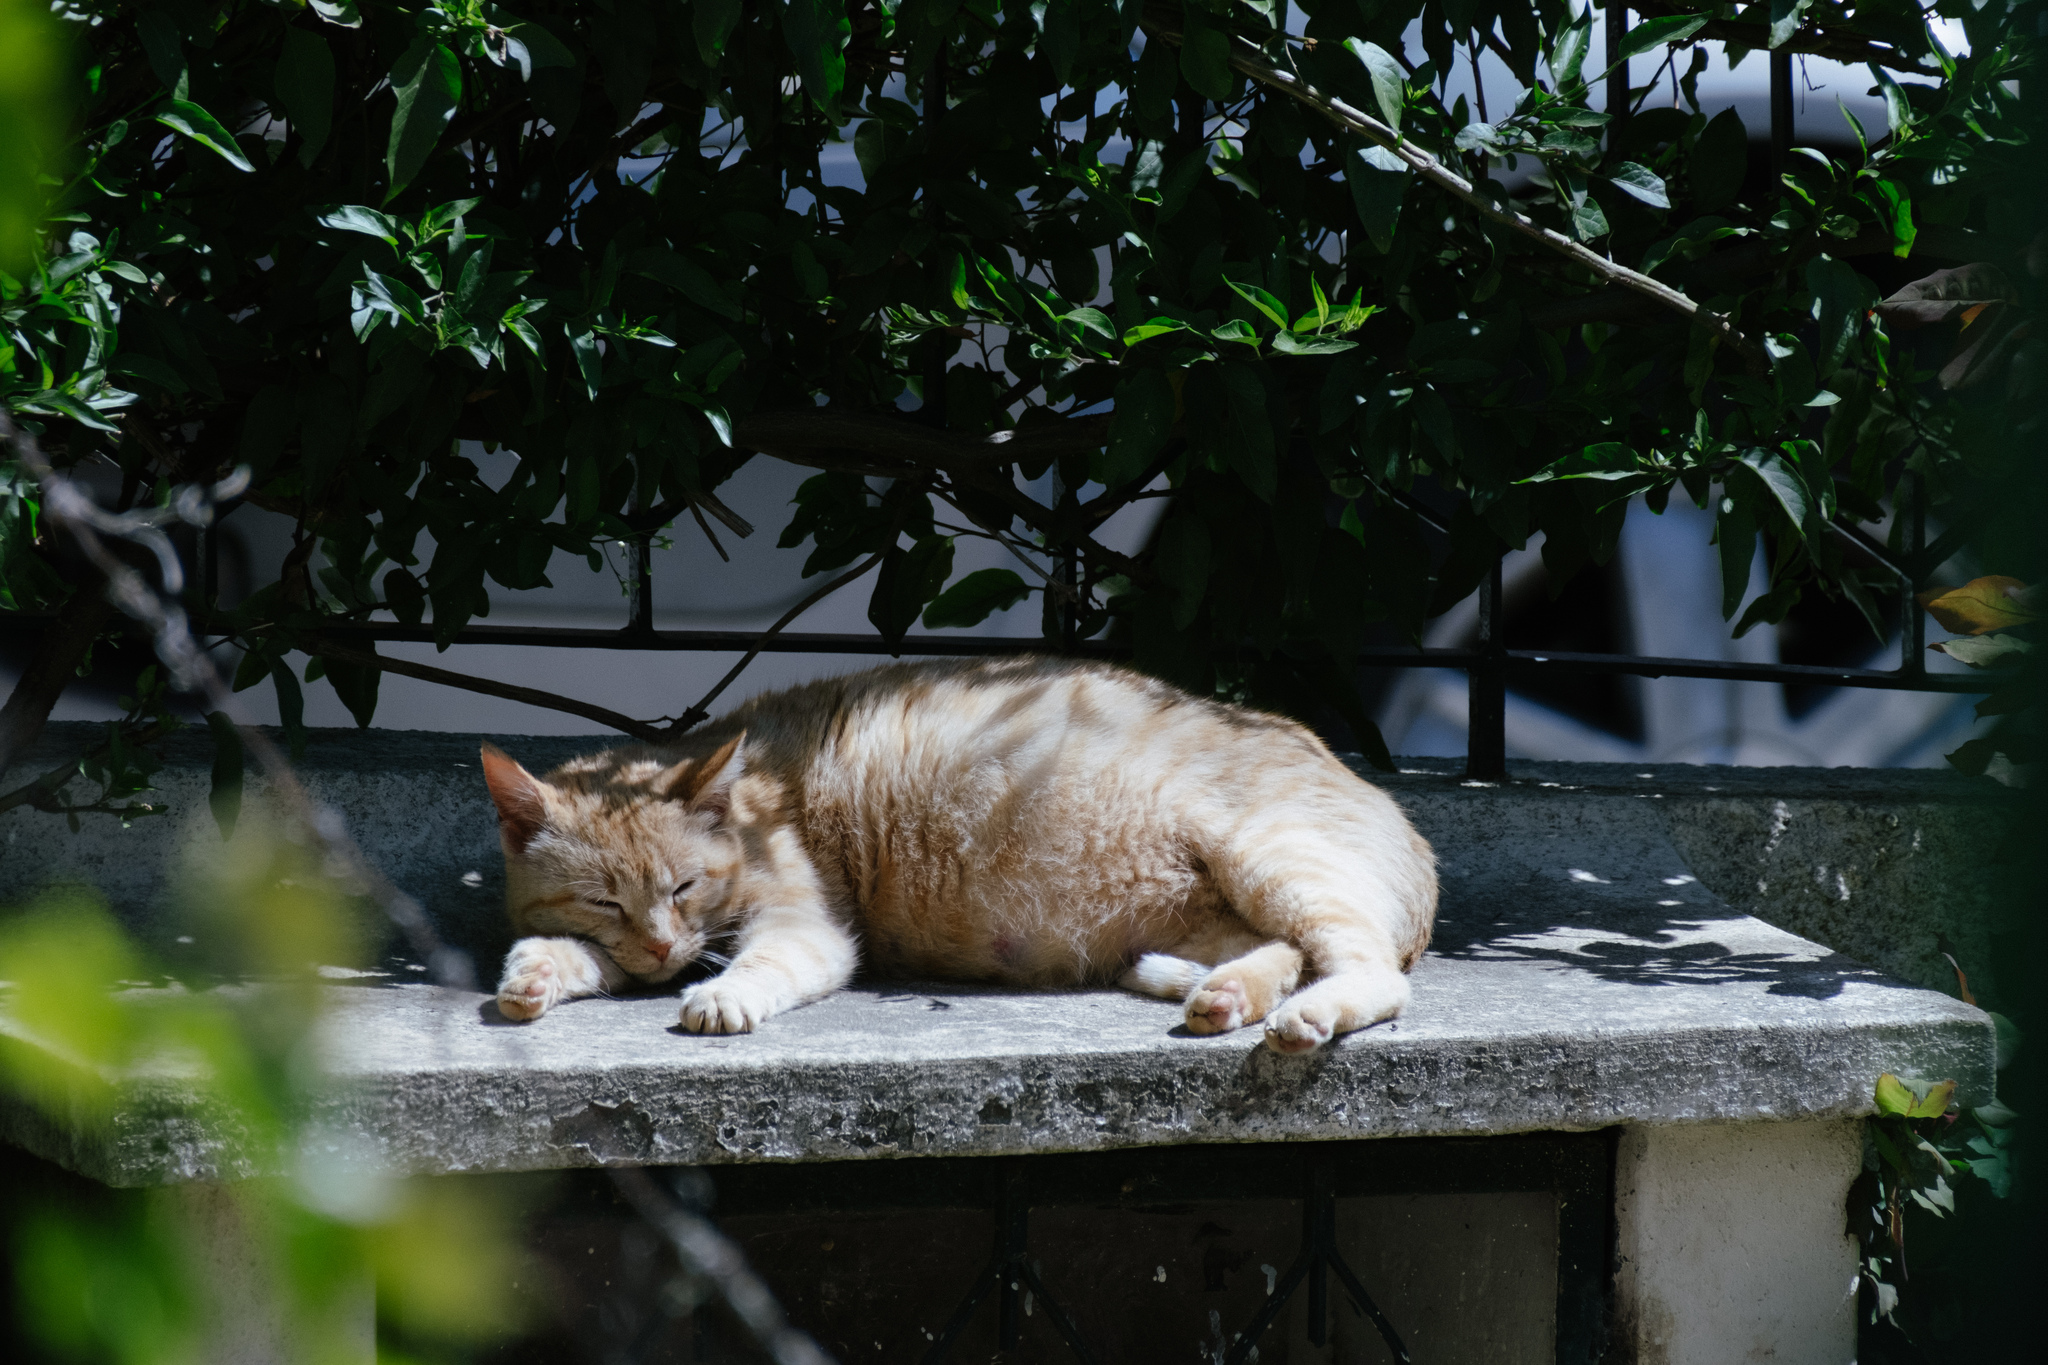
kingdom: Animalia
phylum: Chordata
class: Mammalia
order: Carnivora
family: Felidae
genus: Felis
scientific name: Felis catus
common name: Domestic cat
